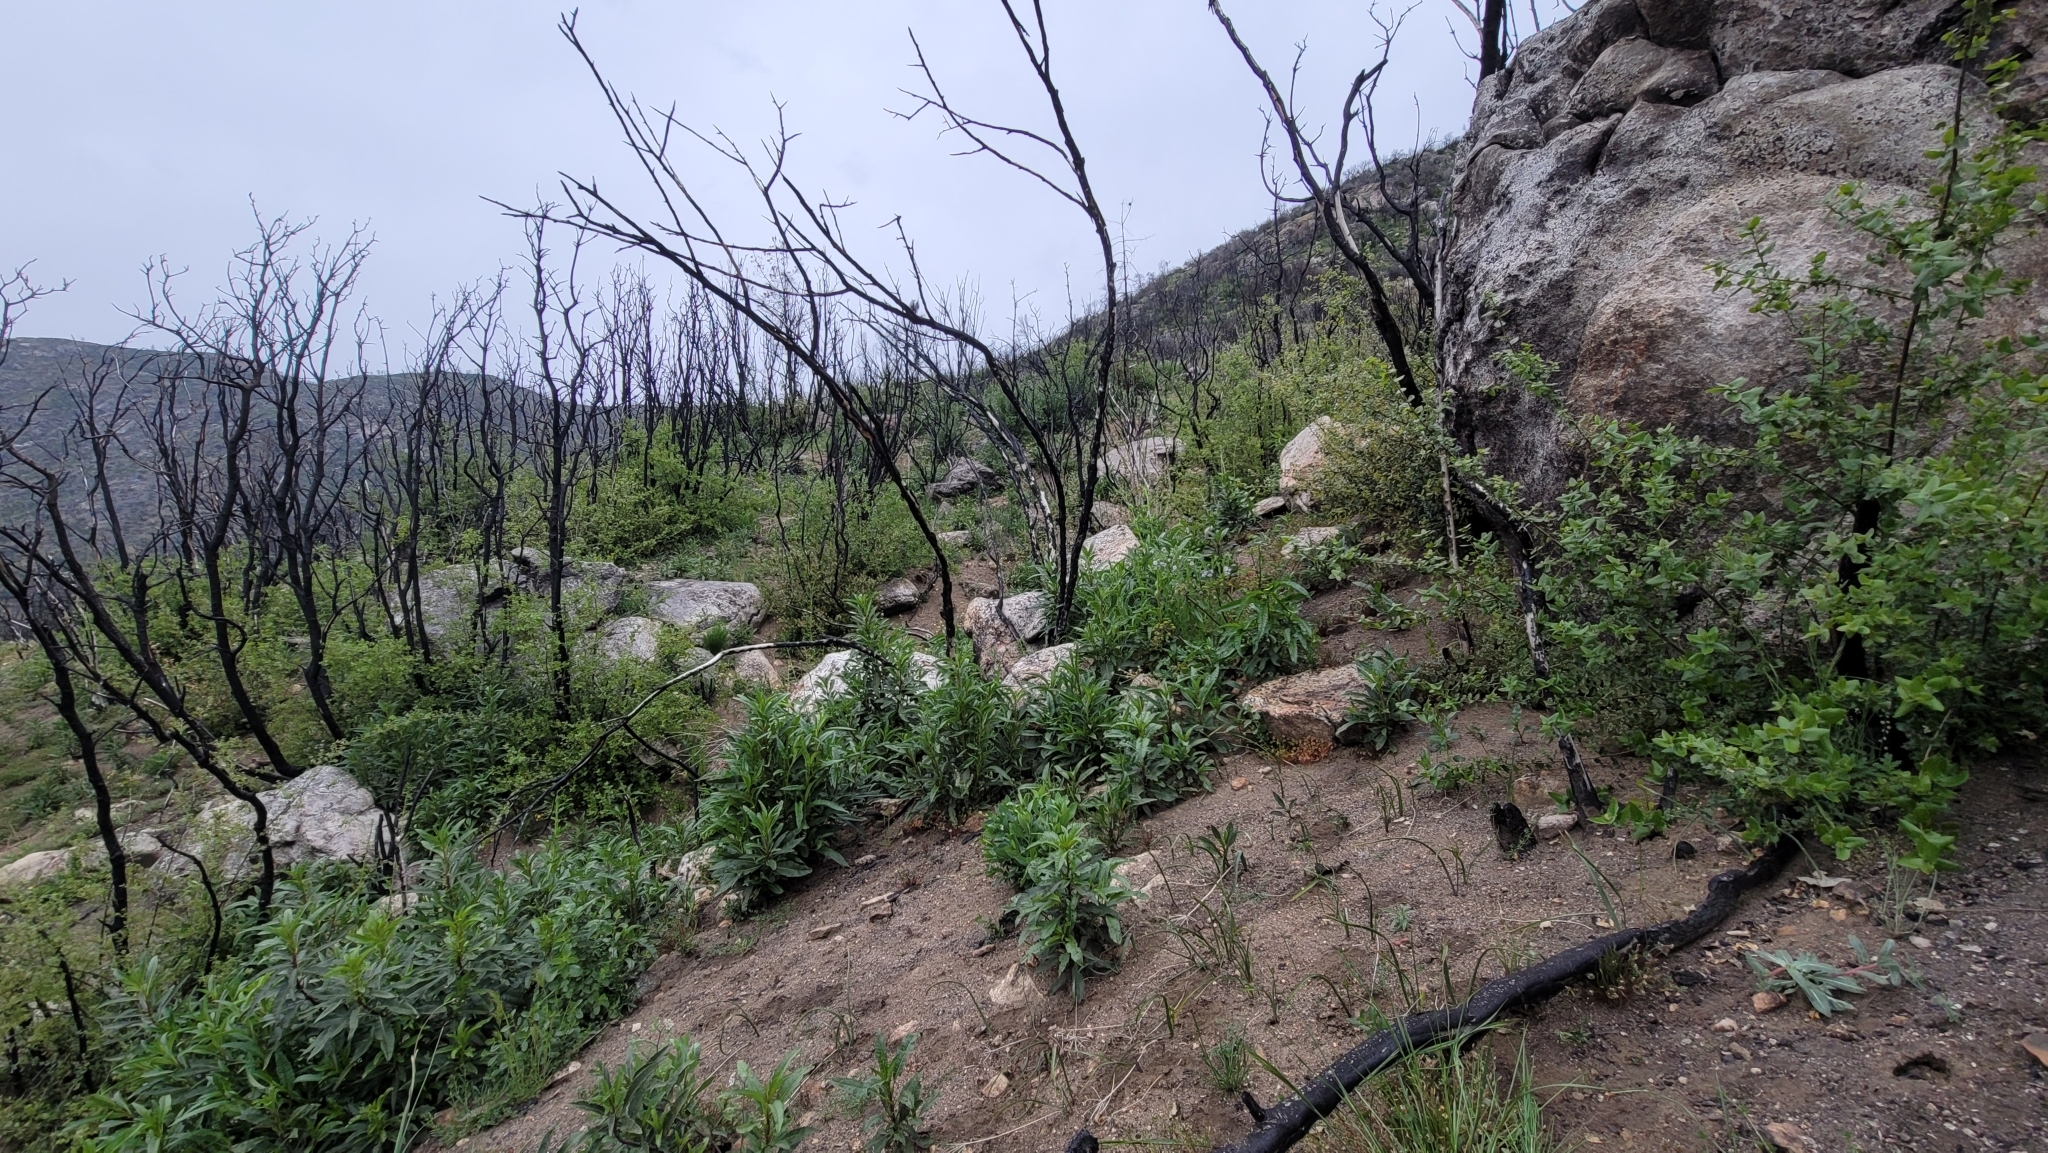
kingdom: Plantae
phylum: Tracheophyta
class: Magnoliopsida
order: Boraginales
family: Hydrophyllaceae
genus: Phacelia
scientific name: Phacelia cicutaria
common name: Caterpillar phacelia
